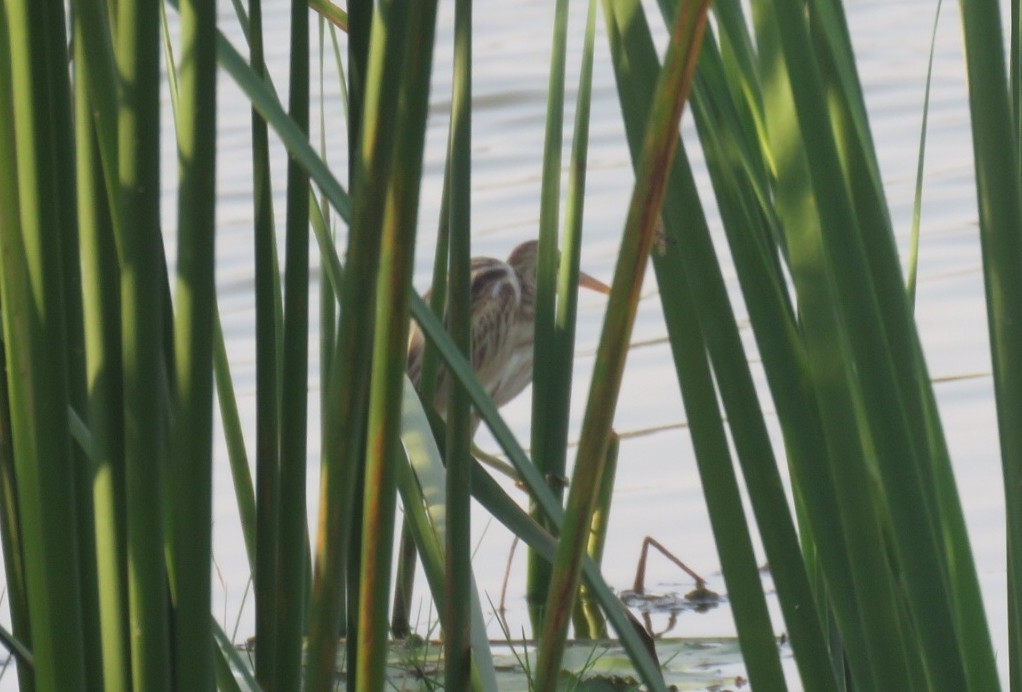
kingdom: Animalia
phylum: Chordata
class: Aves
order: Pelecaniformes
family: Ardeidae
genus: Ixobrychus
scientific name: Ixobrychus sinensis
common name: Yellow bittern
